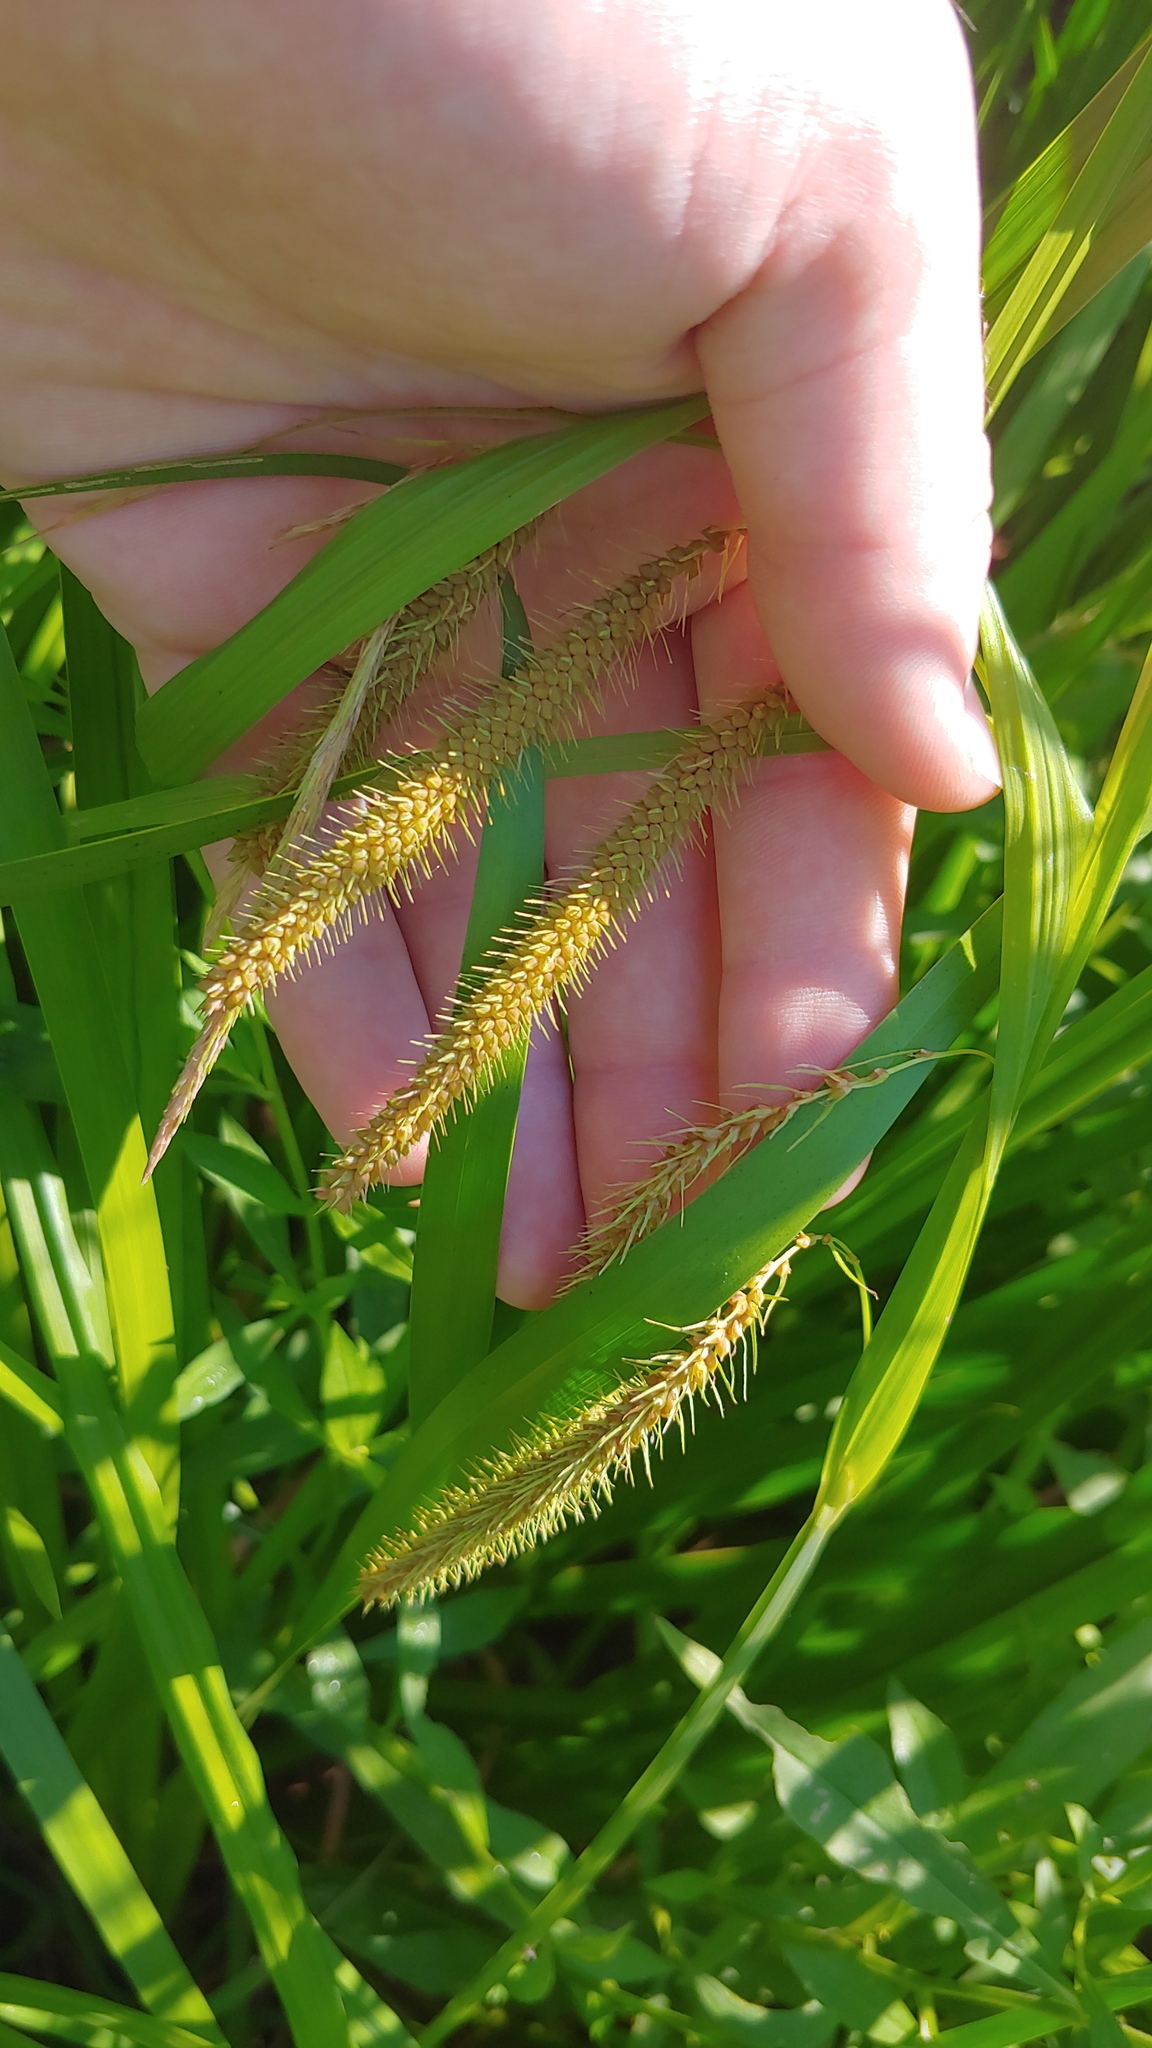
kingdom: Plantae
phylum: Tracheophyta
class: Liliopsida
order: Poales
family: Cyperaceae
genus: Carex
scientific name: Carex crinita
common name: Fringed sedge
